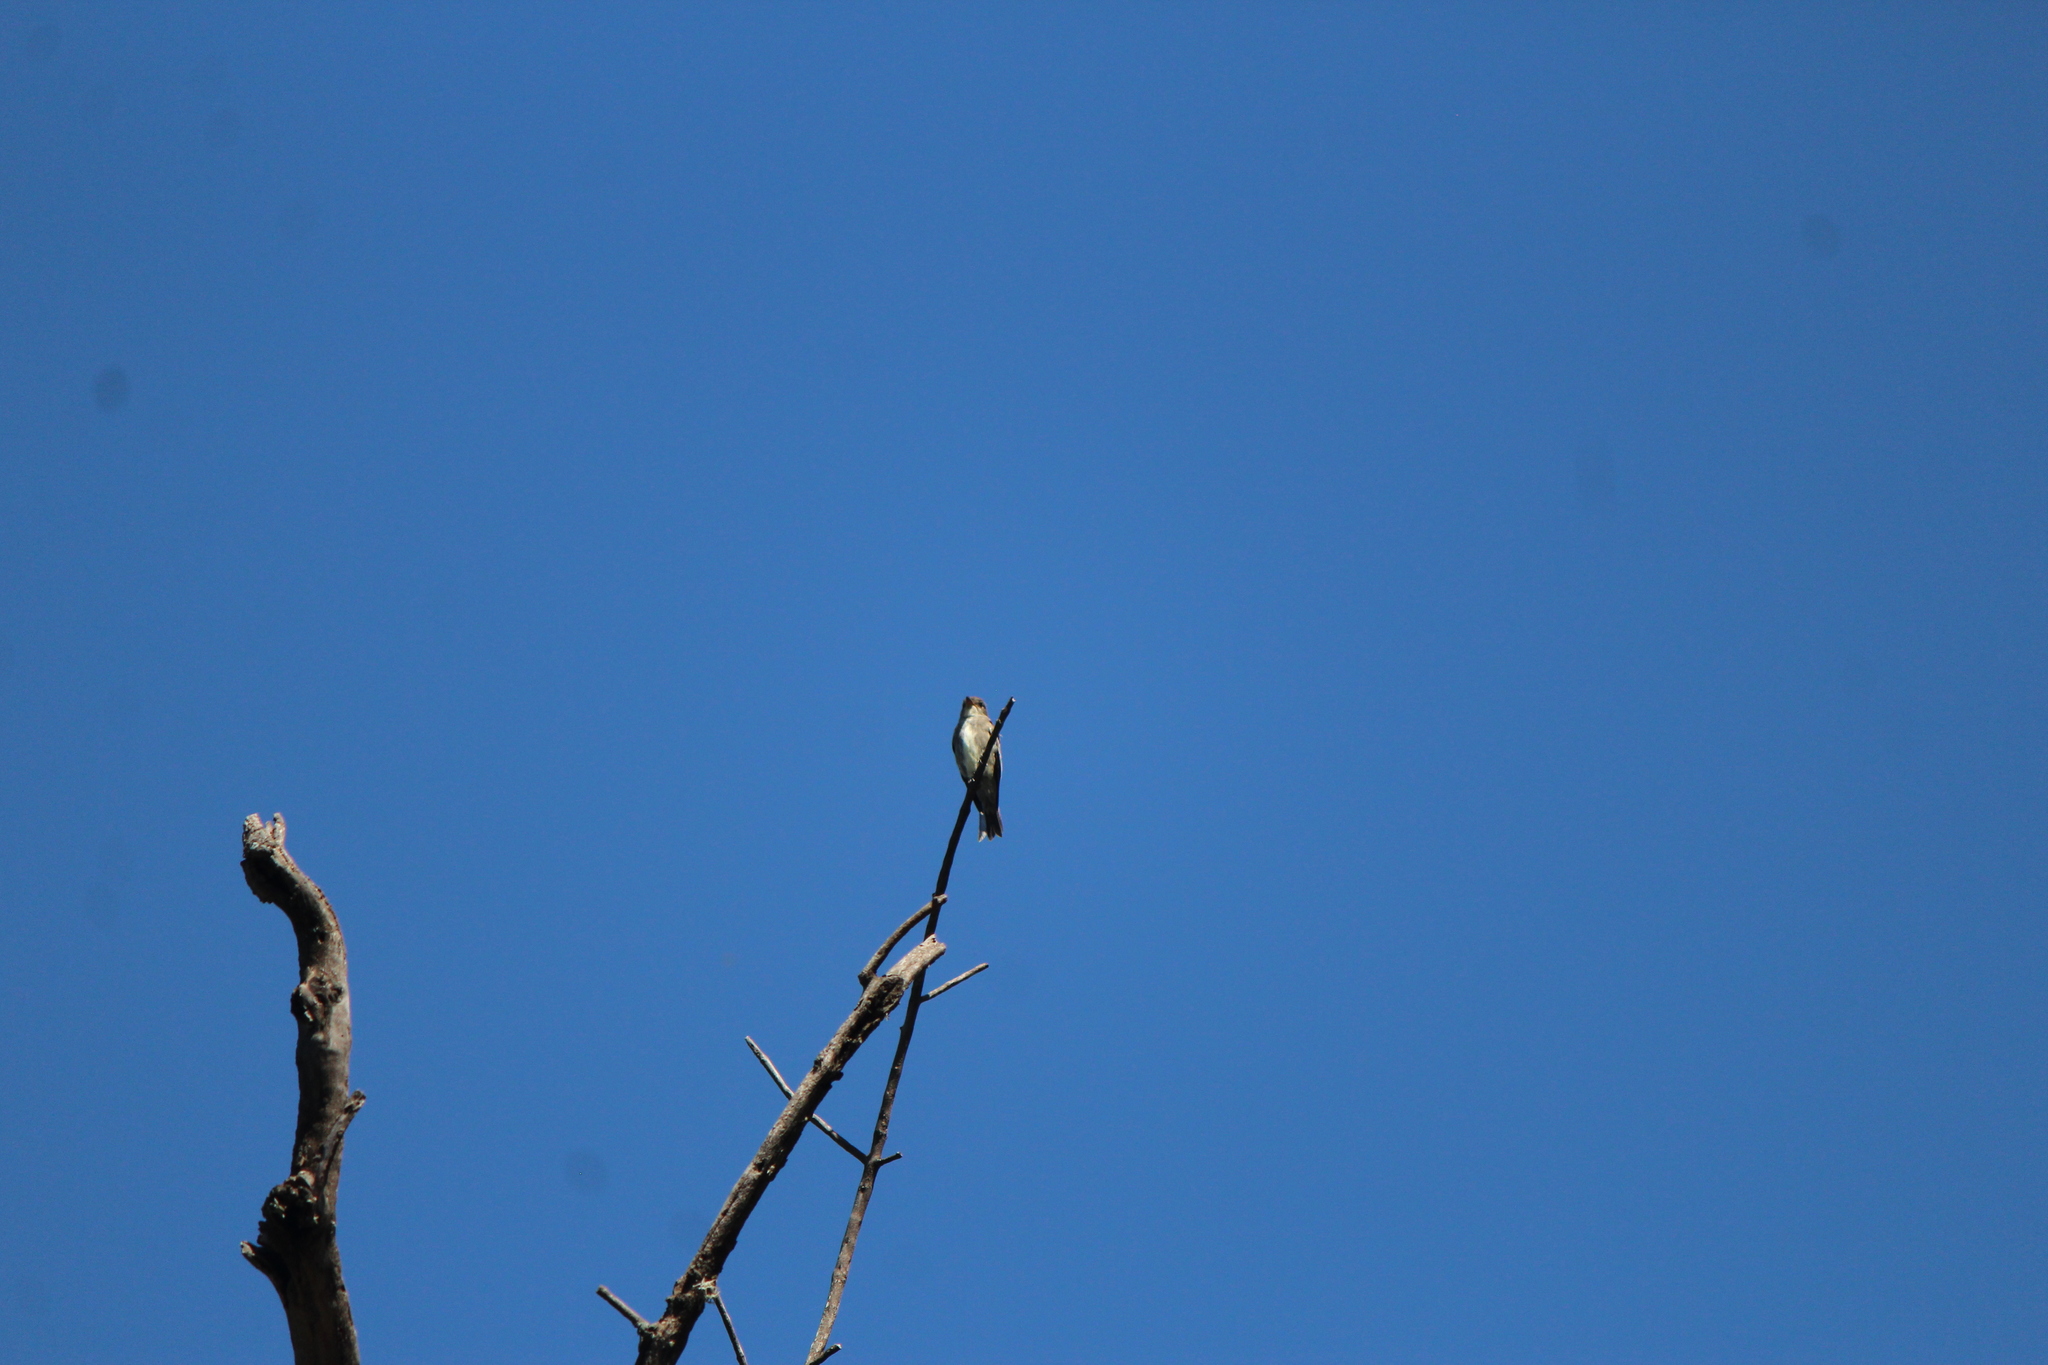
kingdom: Animalia
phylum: Chordata
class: Aves
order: Passeriformes
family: Tyrannidae
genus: Contopus
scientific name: Contopus cooperi
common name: Olive-sided flycatcher
